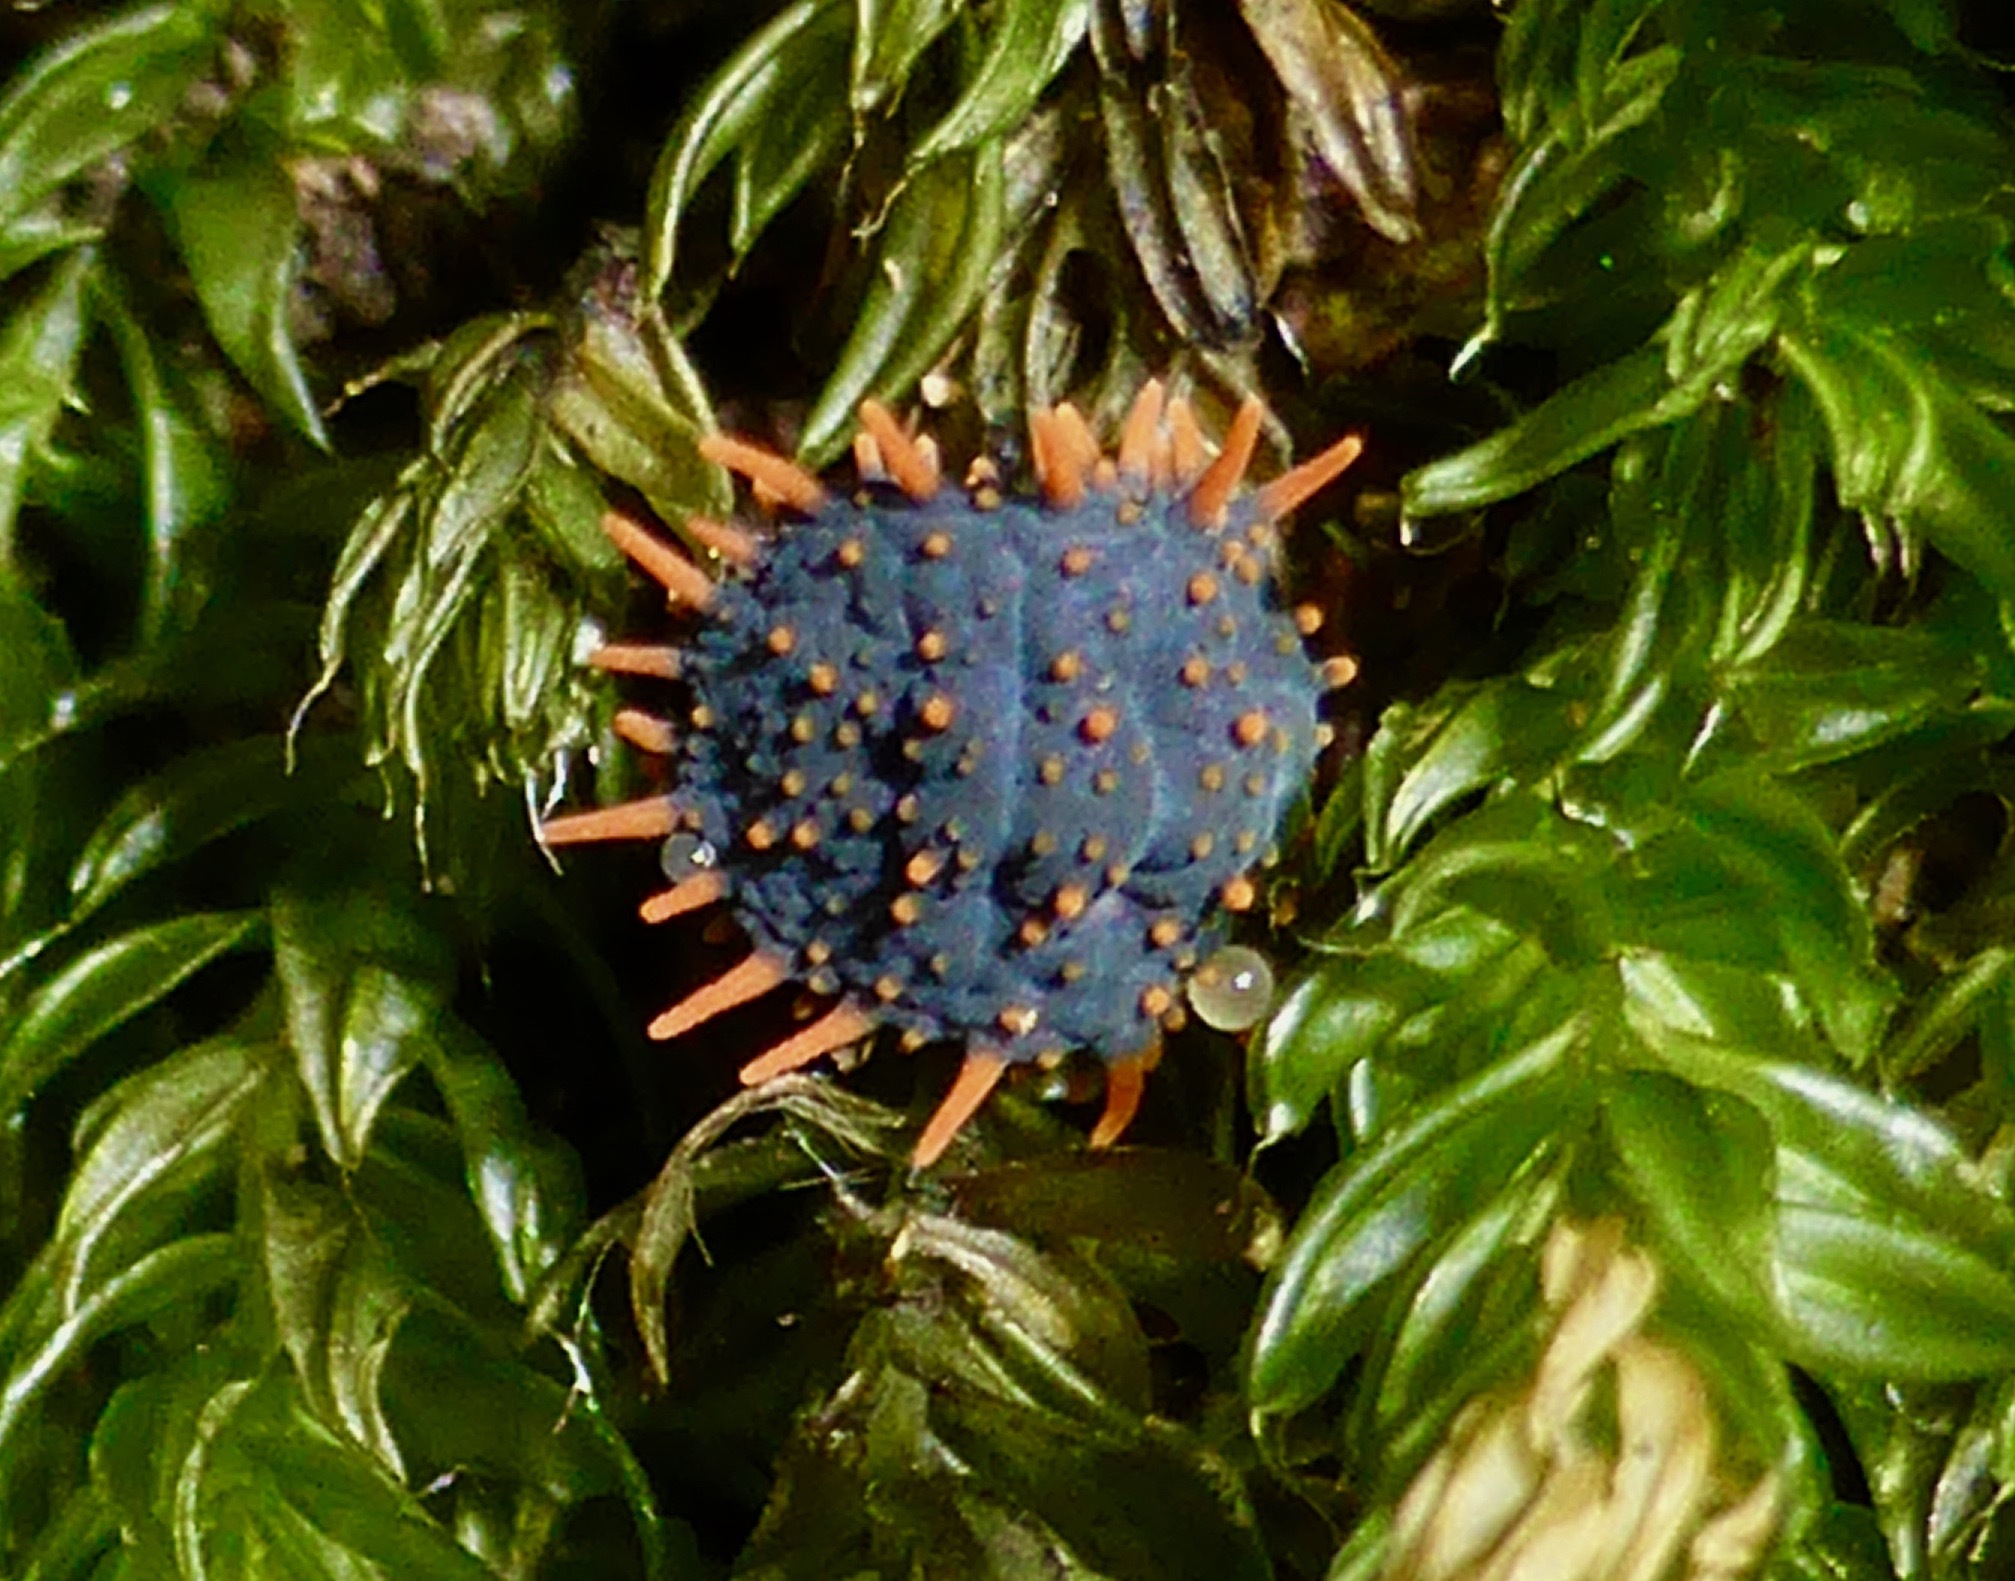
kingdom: Animalia
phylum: Arthropoda
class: Collembola
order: Poduromorpha
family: Neanuridae
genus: Holacanthella
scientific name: Holacanthella paucispinosa
